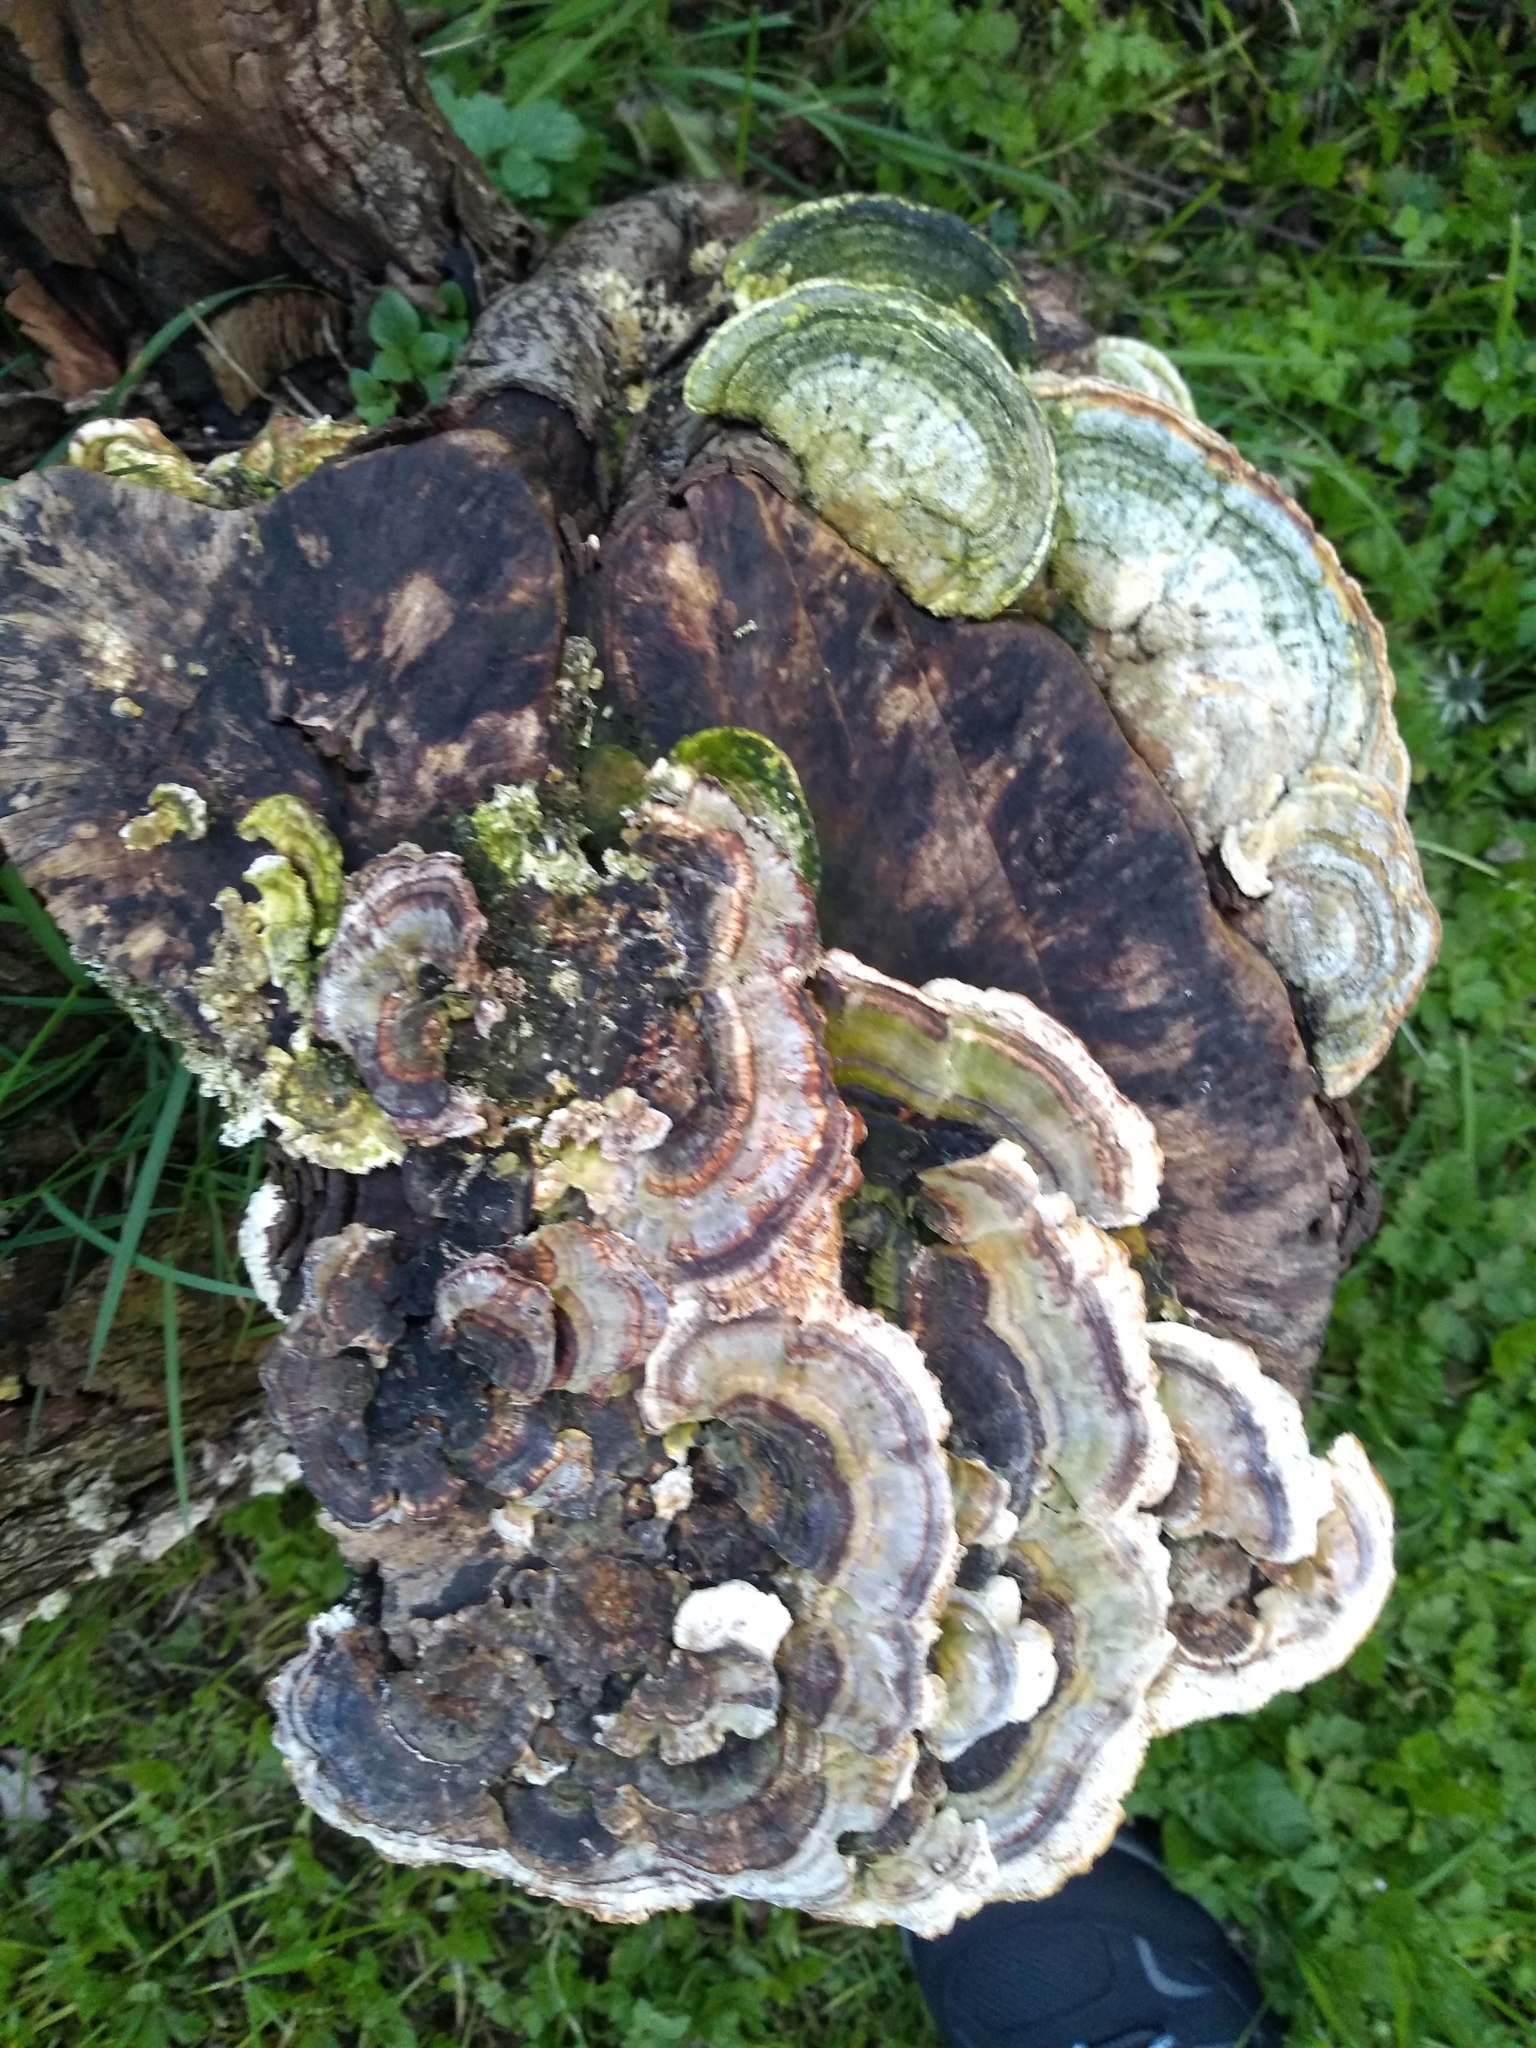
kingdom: Fungi
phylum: Basidiomycota
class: Agaricomycetes
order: Polyporales
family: Polyporaceae
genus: Trametes
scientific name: Trametes versicolor
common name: Turkeytail
